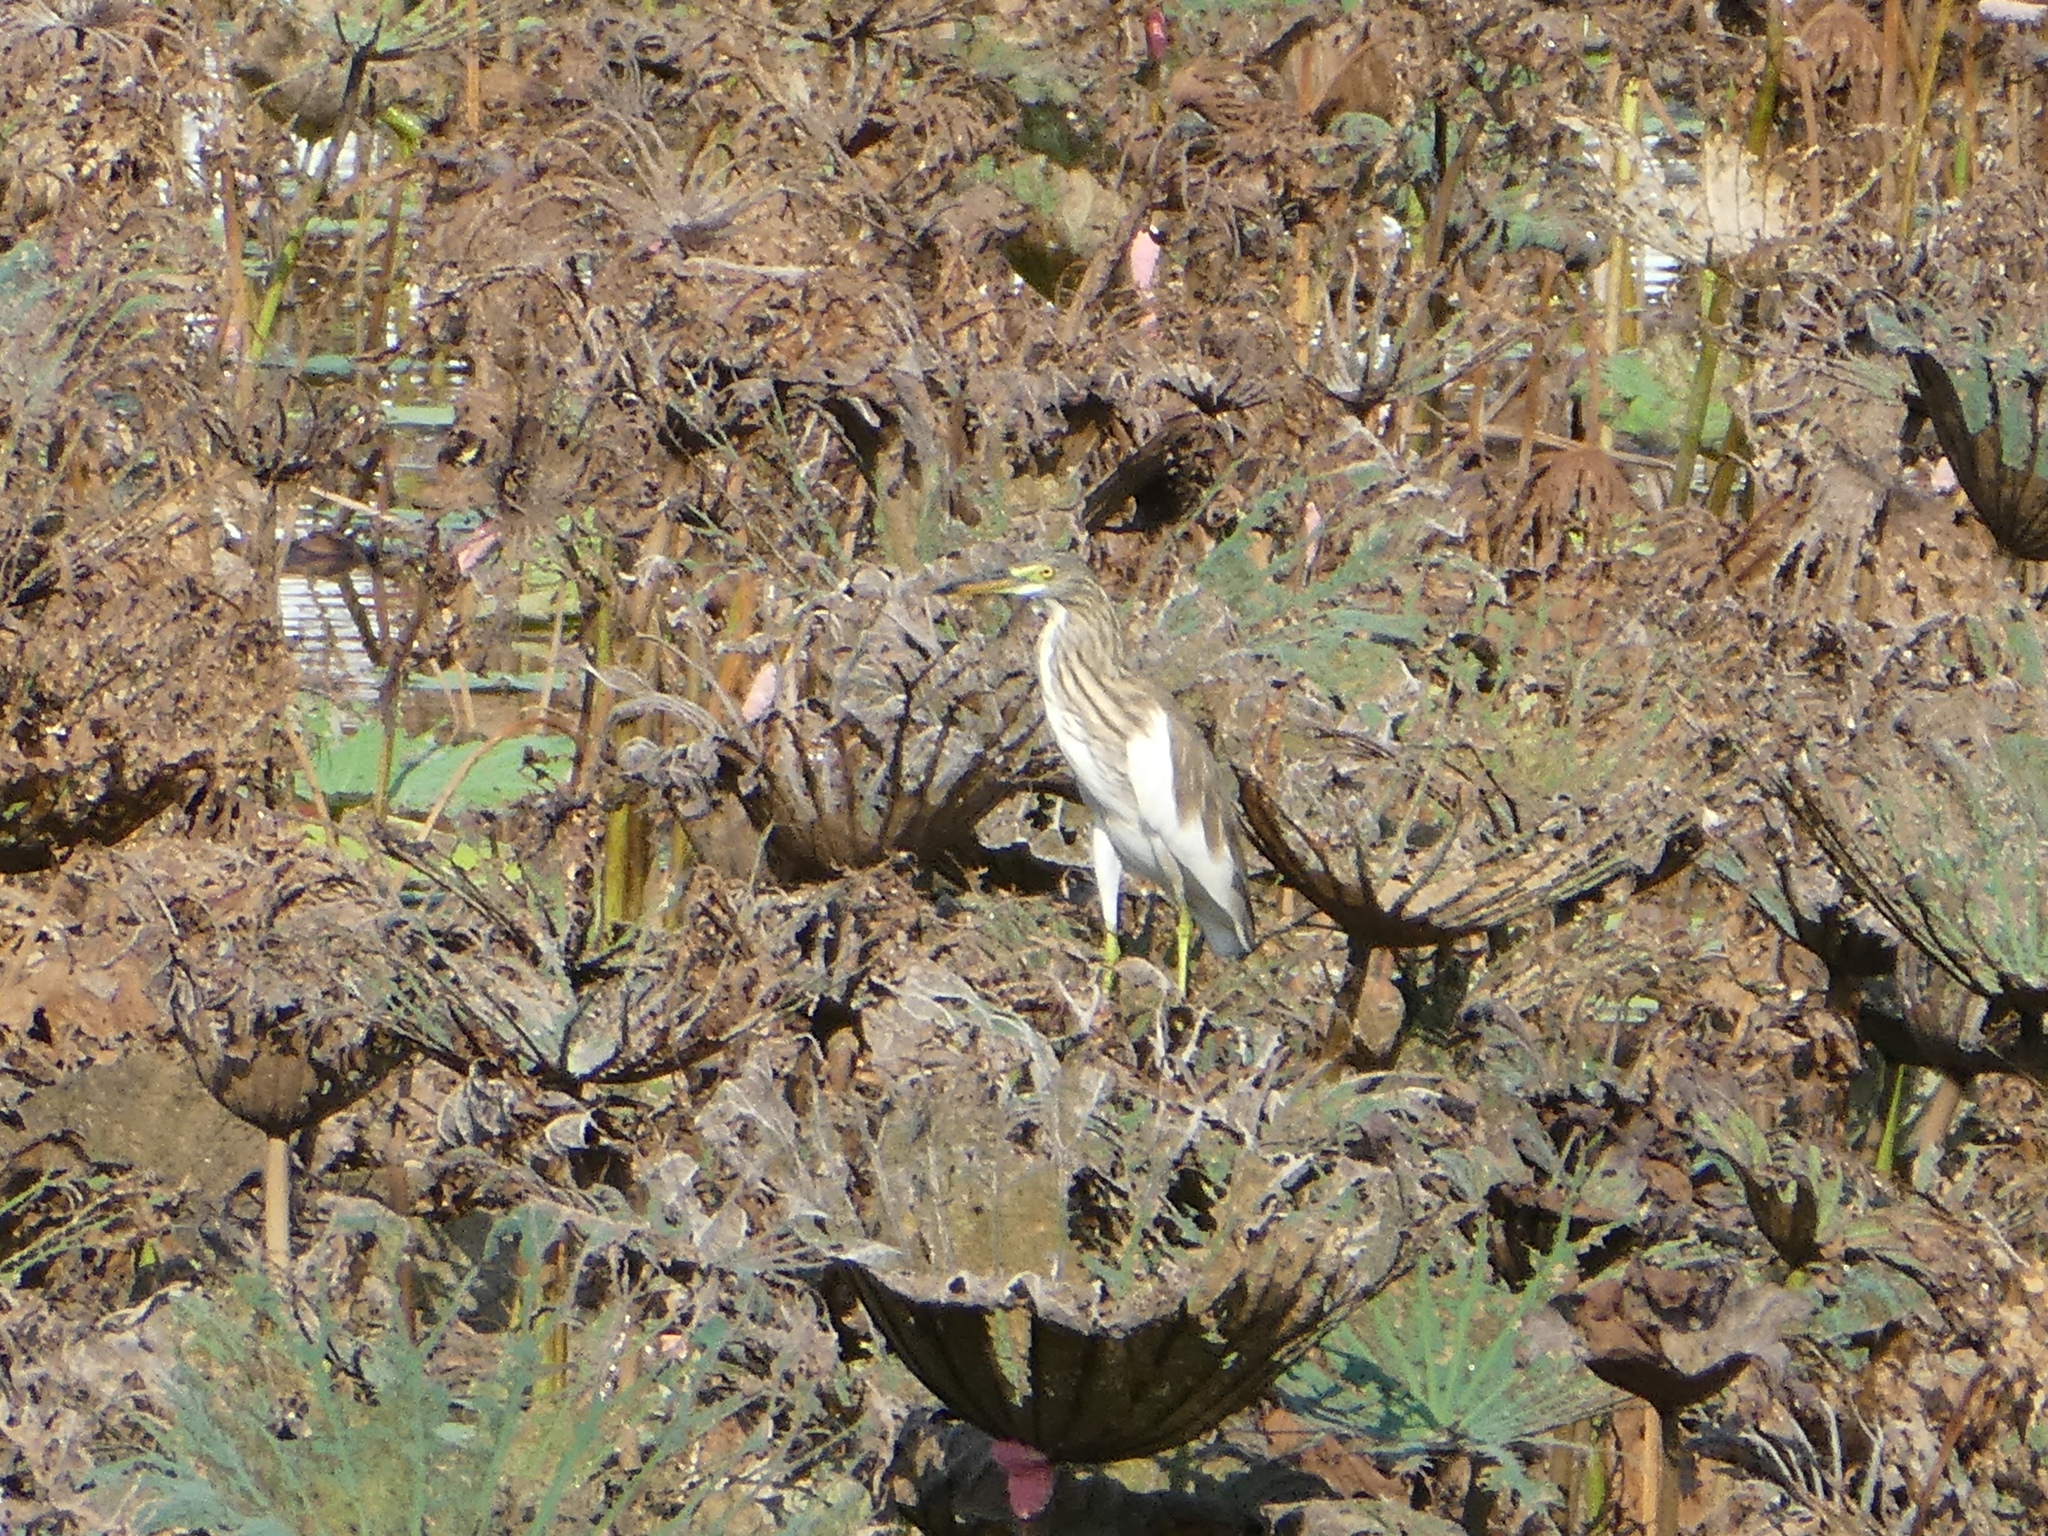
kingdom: Animalia
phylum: Chordata
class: Aves
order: Pelecaniformes
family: Ardeidae
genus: Ardeola
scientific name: Ardeola
